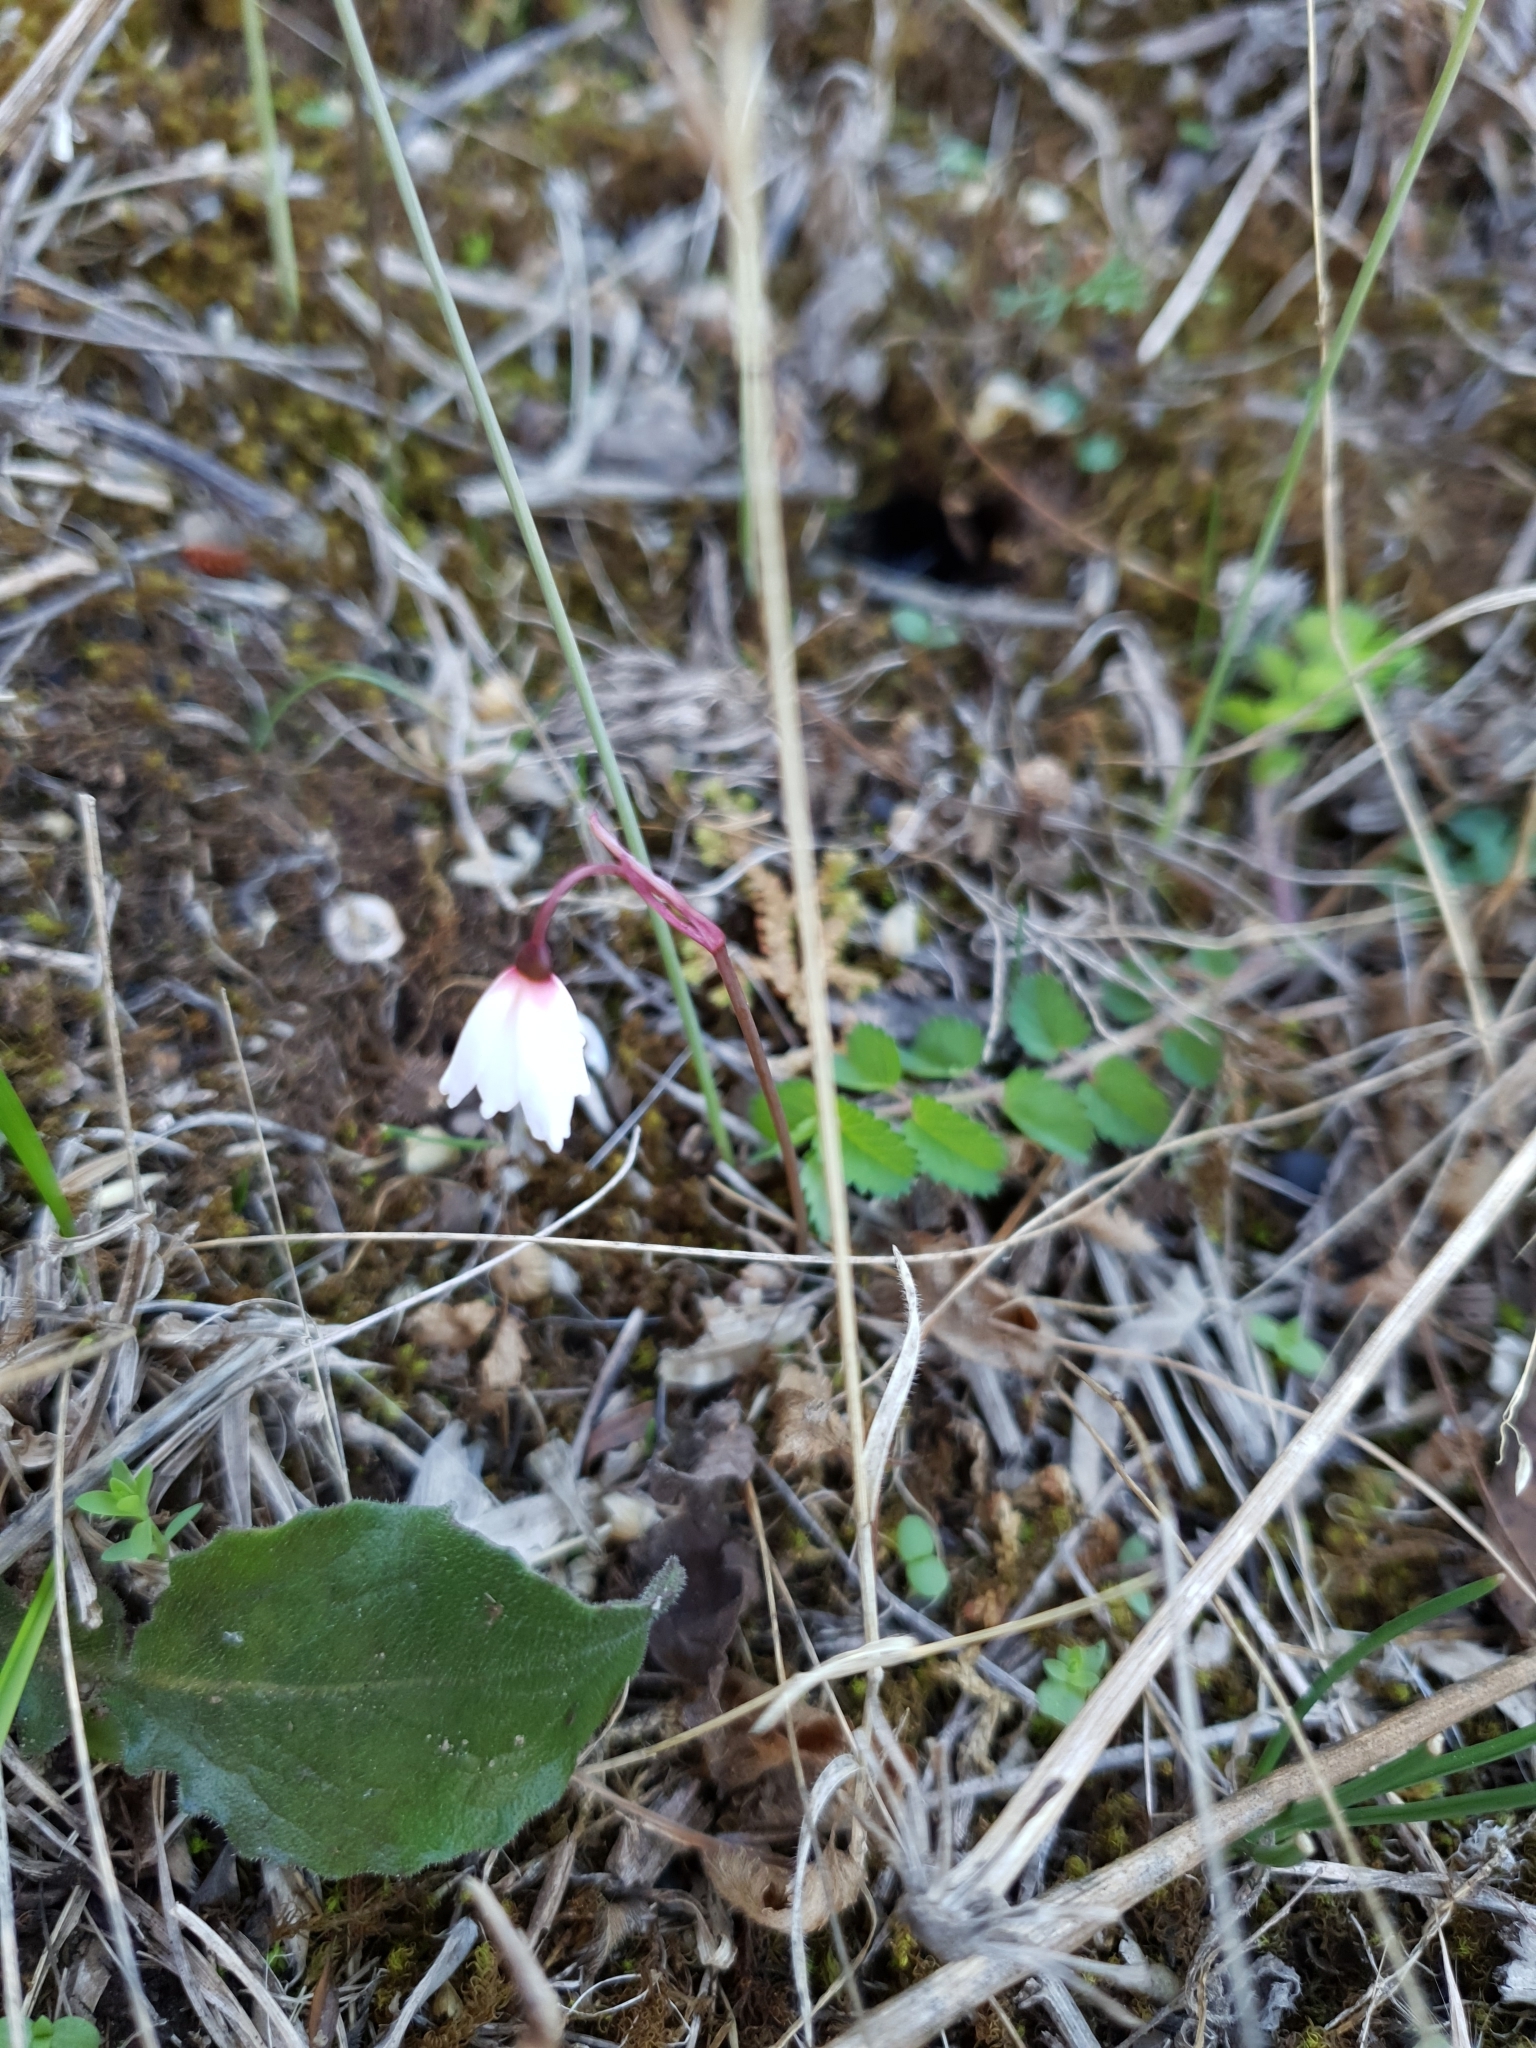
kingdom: Plantae
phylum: Tracheophyta
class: Liliopsida
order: Asparagales
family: Amaryllidaceae
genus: Acis
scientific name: Acis autumnalis
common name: Autumn snowflake
